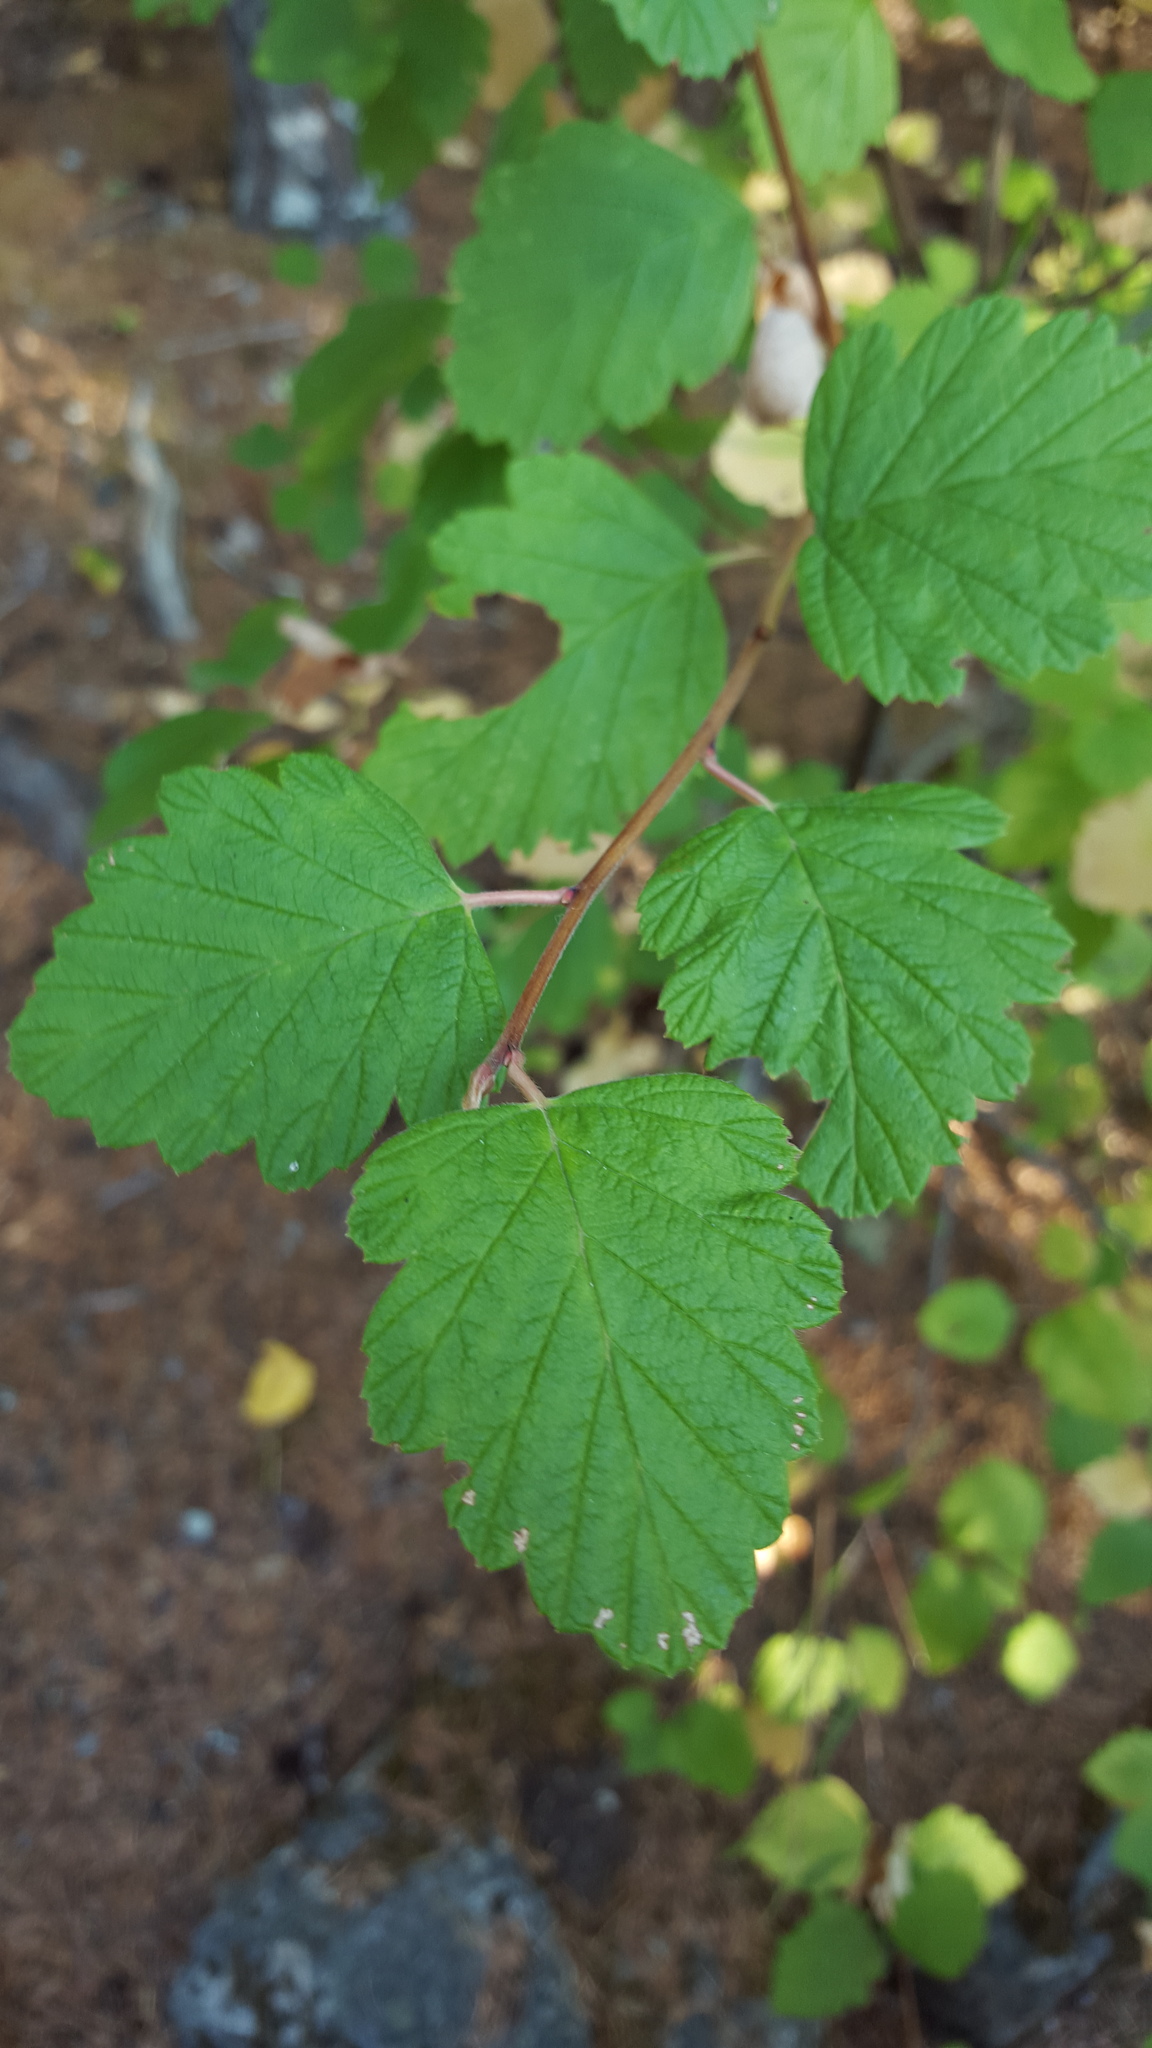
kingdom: Plantae
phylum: Tracheophyta
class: Magnoliopsida
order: Rosales
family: Rosaceae
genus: Holodiscus
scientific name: Holodiscus discolor
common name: Oceanspray
